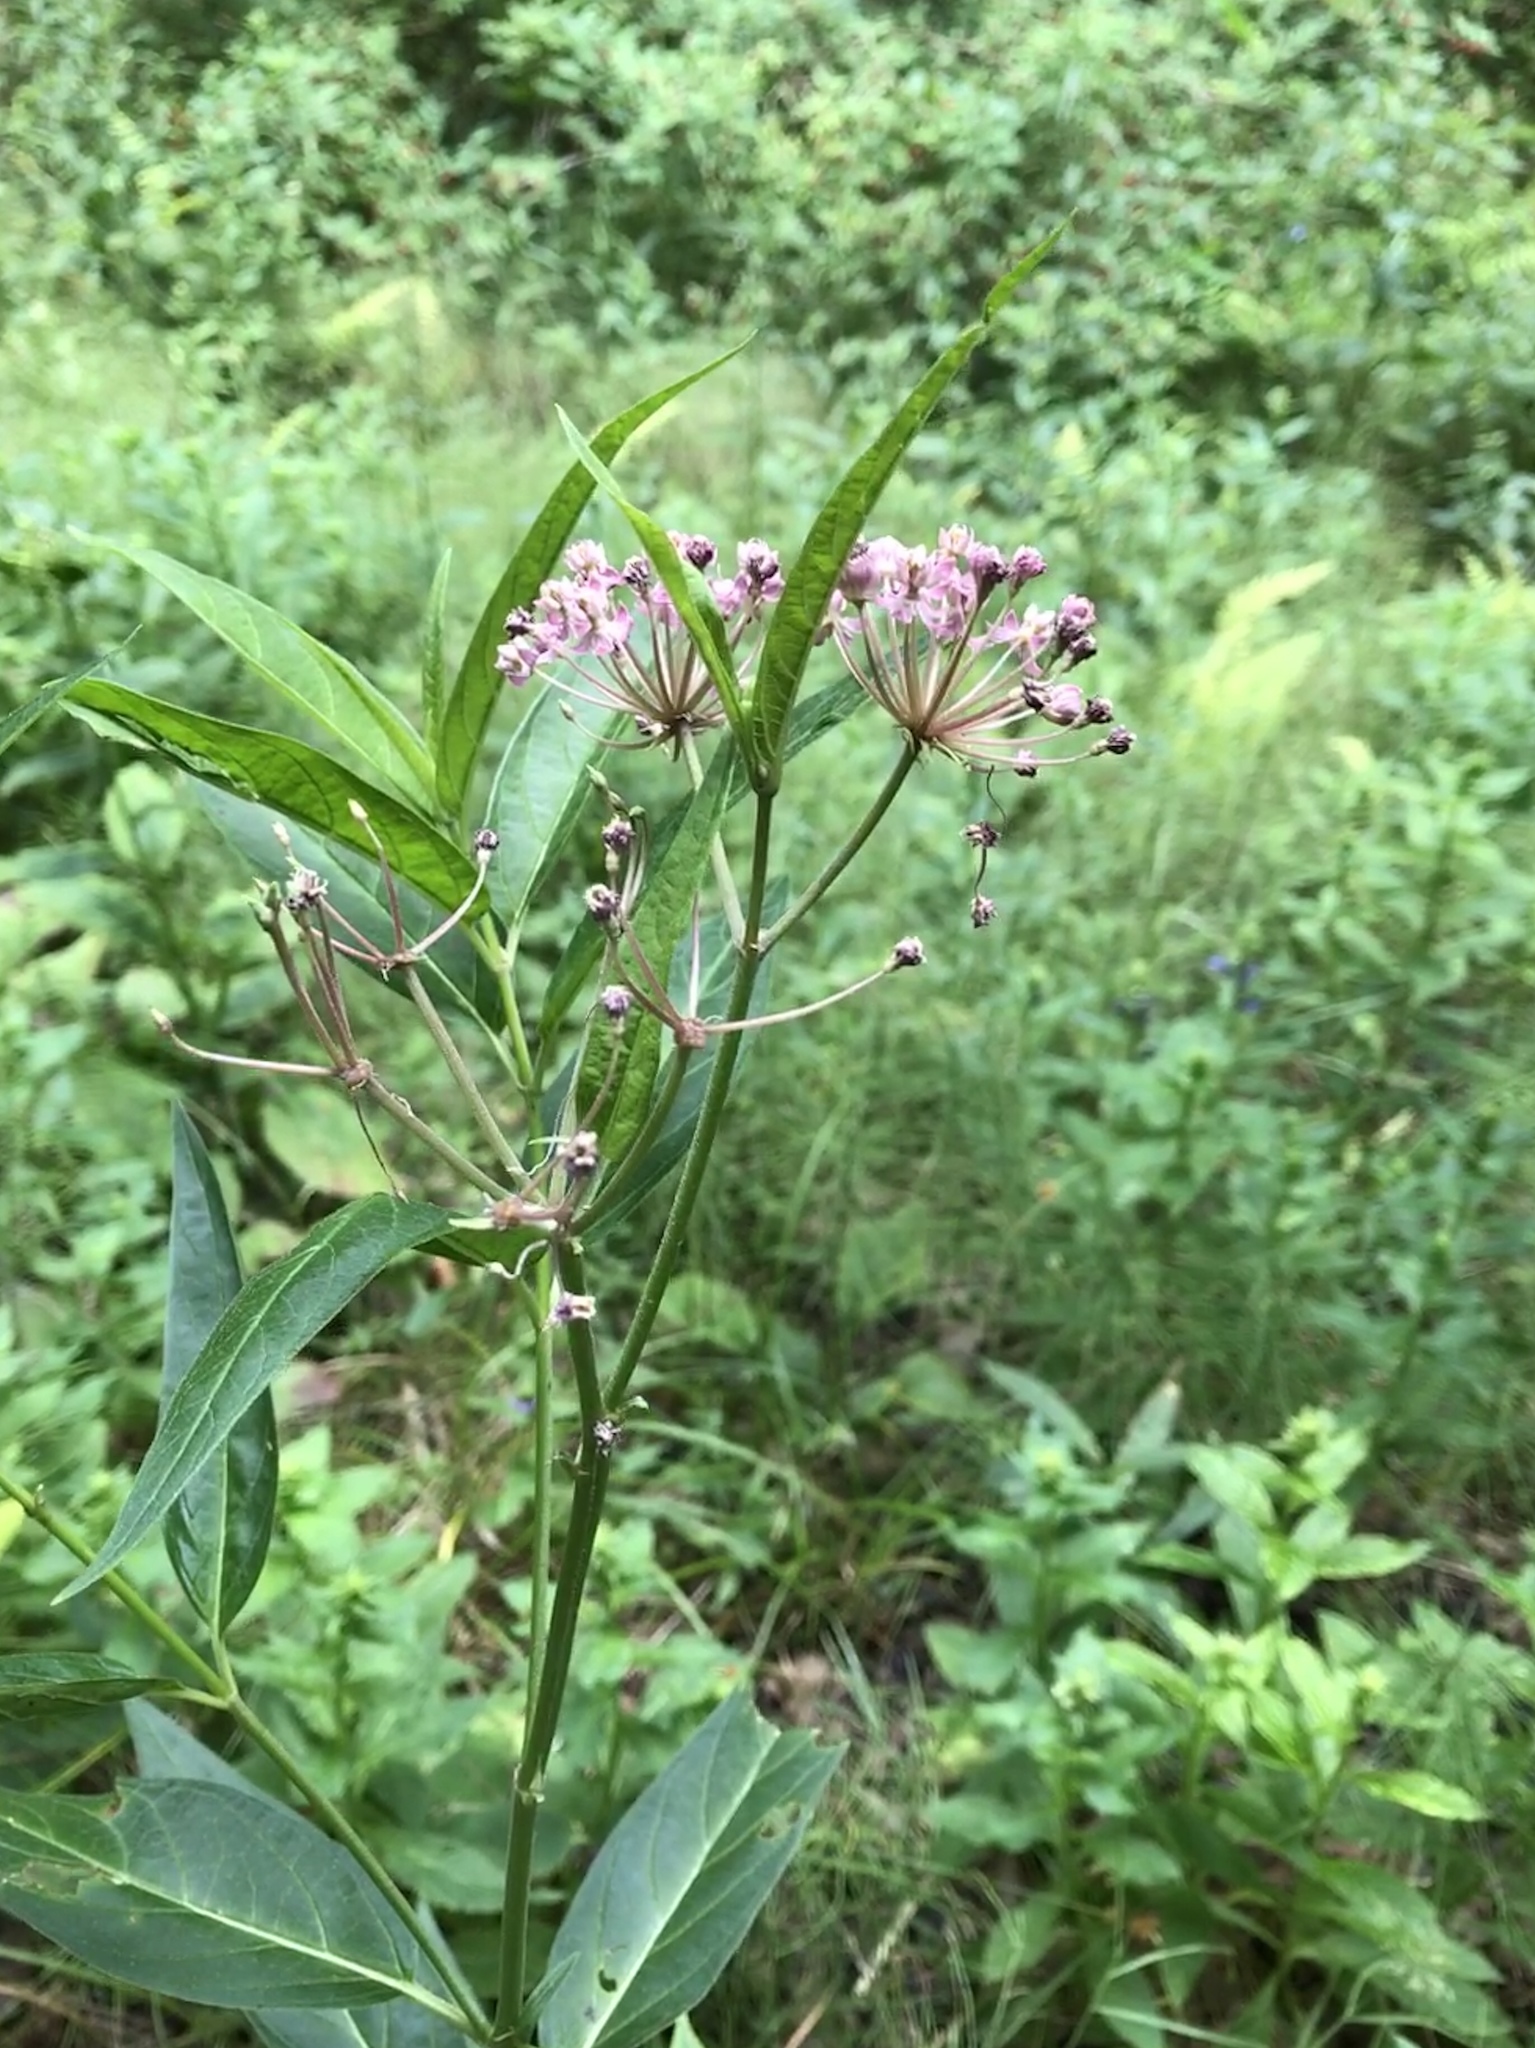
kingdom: Plantae
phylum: Tracheophyta
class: Magnoliopsida
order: Gentianales
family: Apocynaceae
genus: Asclepias
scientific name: Asclepias incarnata
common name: Swamp milkweed
